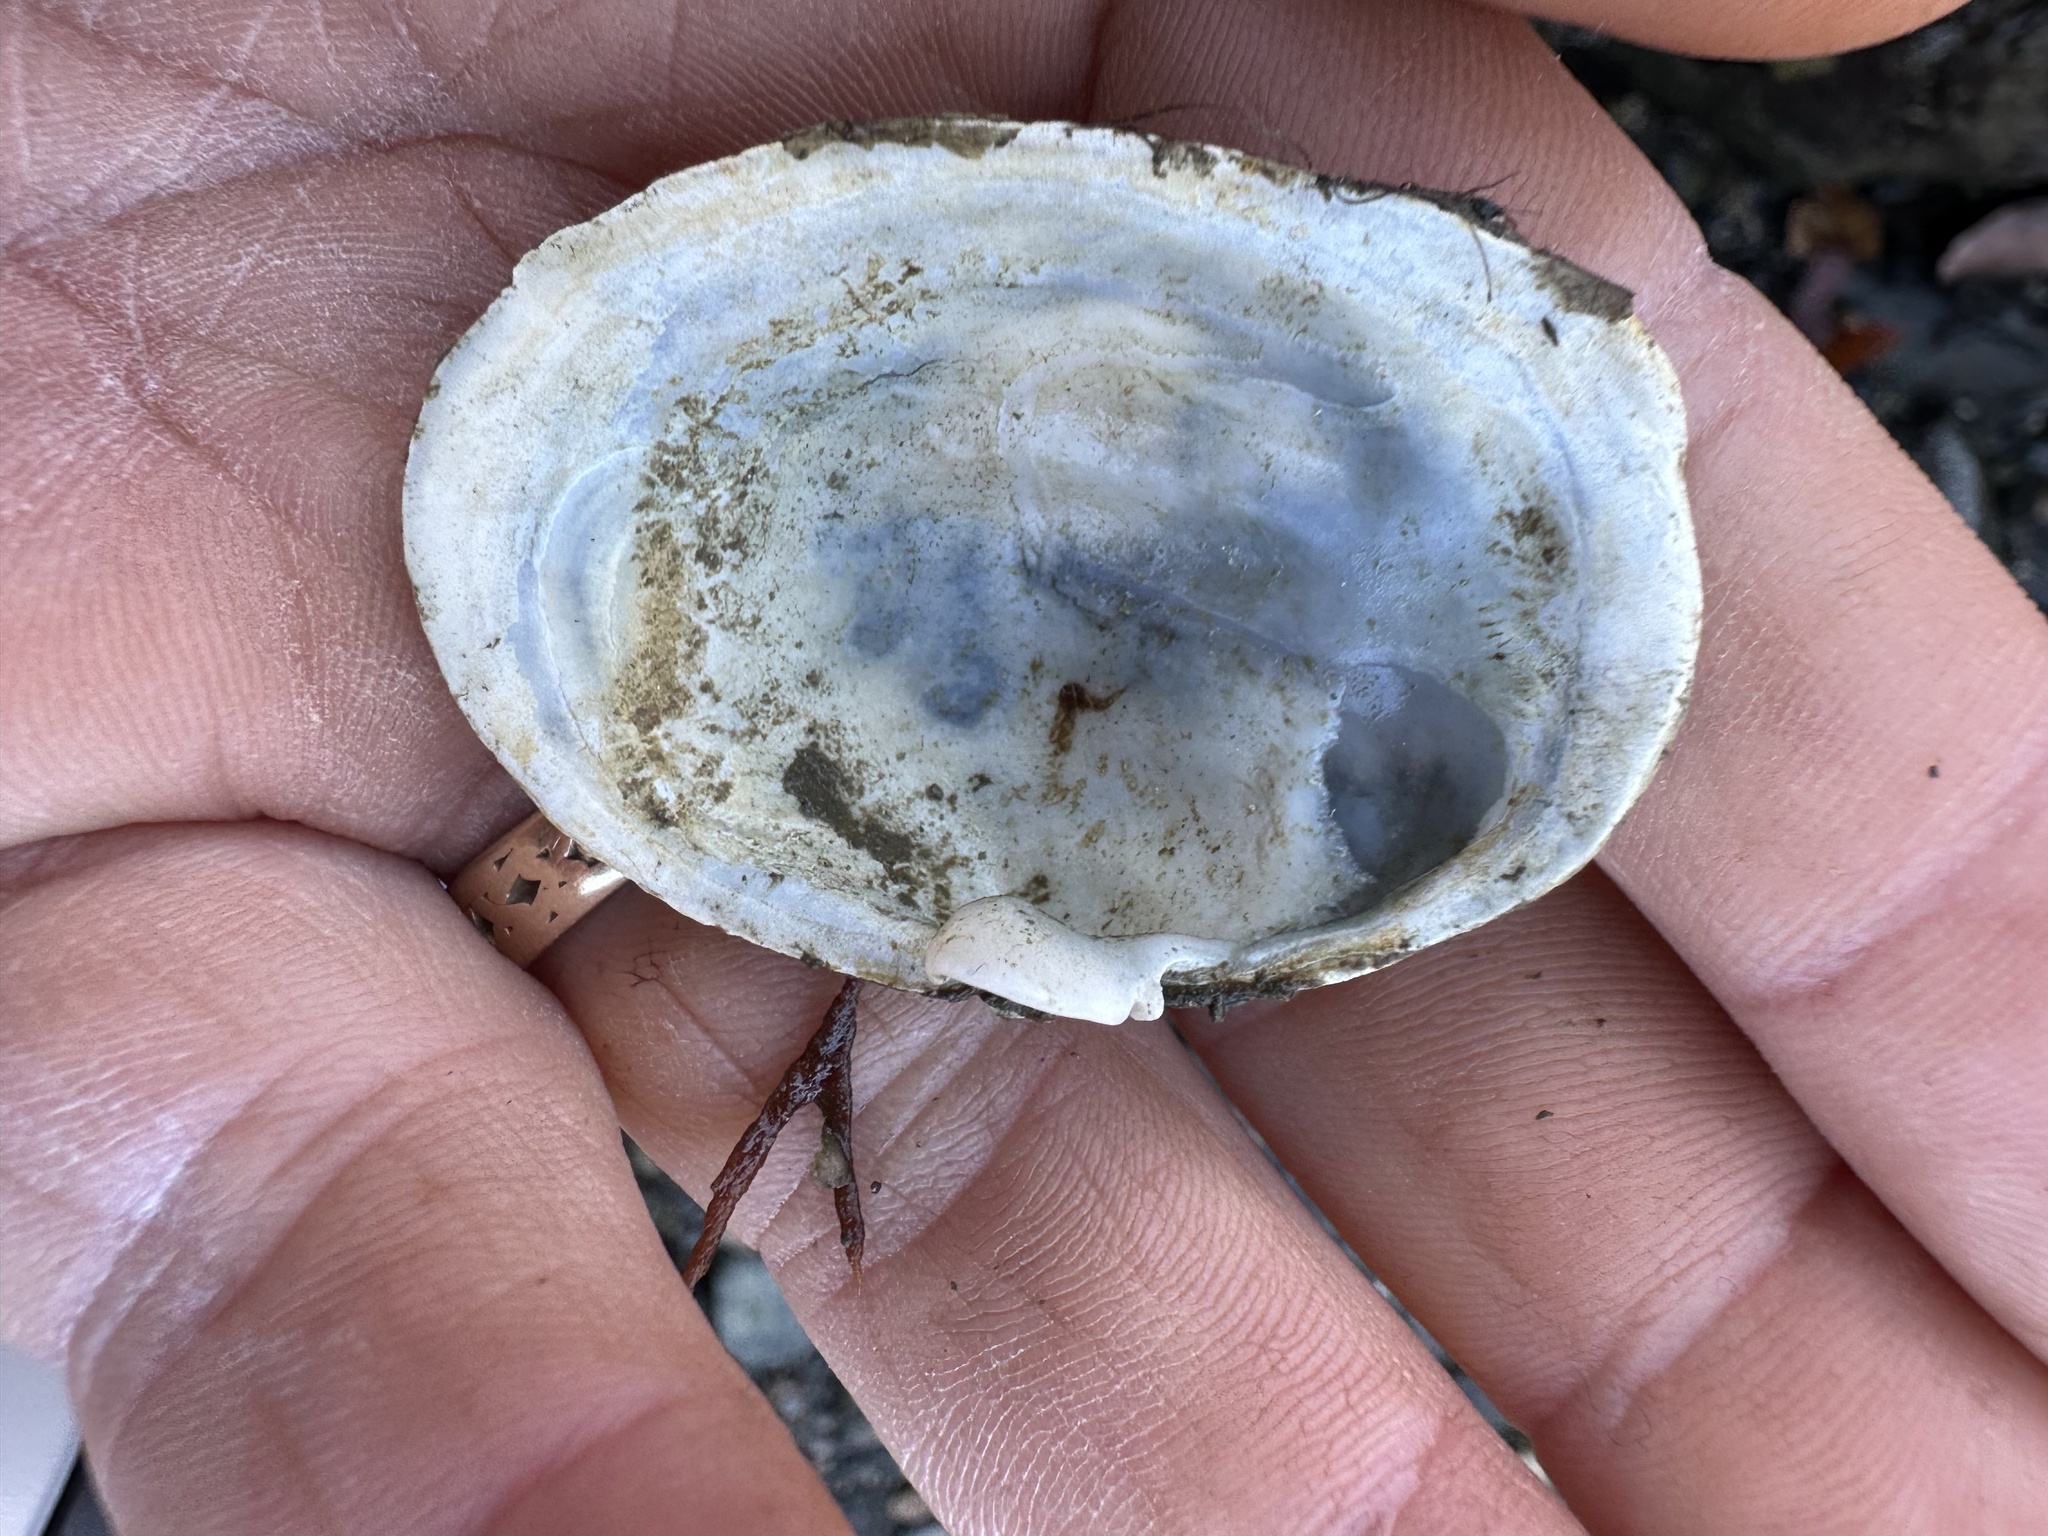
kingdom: Animalia
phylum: Mollusca
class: Bivalvia
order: Myida
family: Myidae
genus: Mya
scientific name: Mya arenaria
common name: Soft-shelled clam
